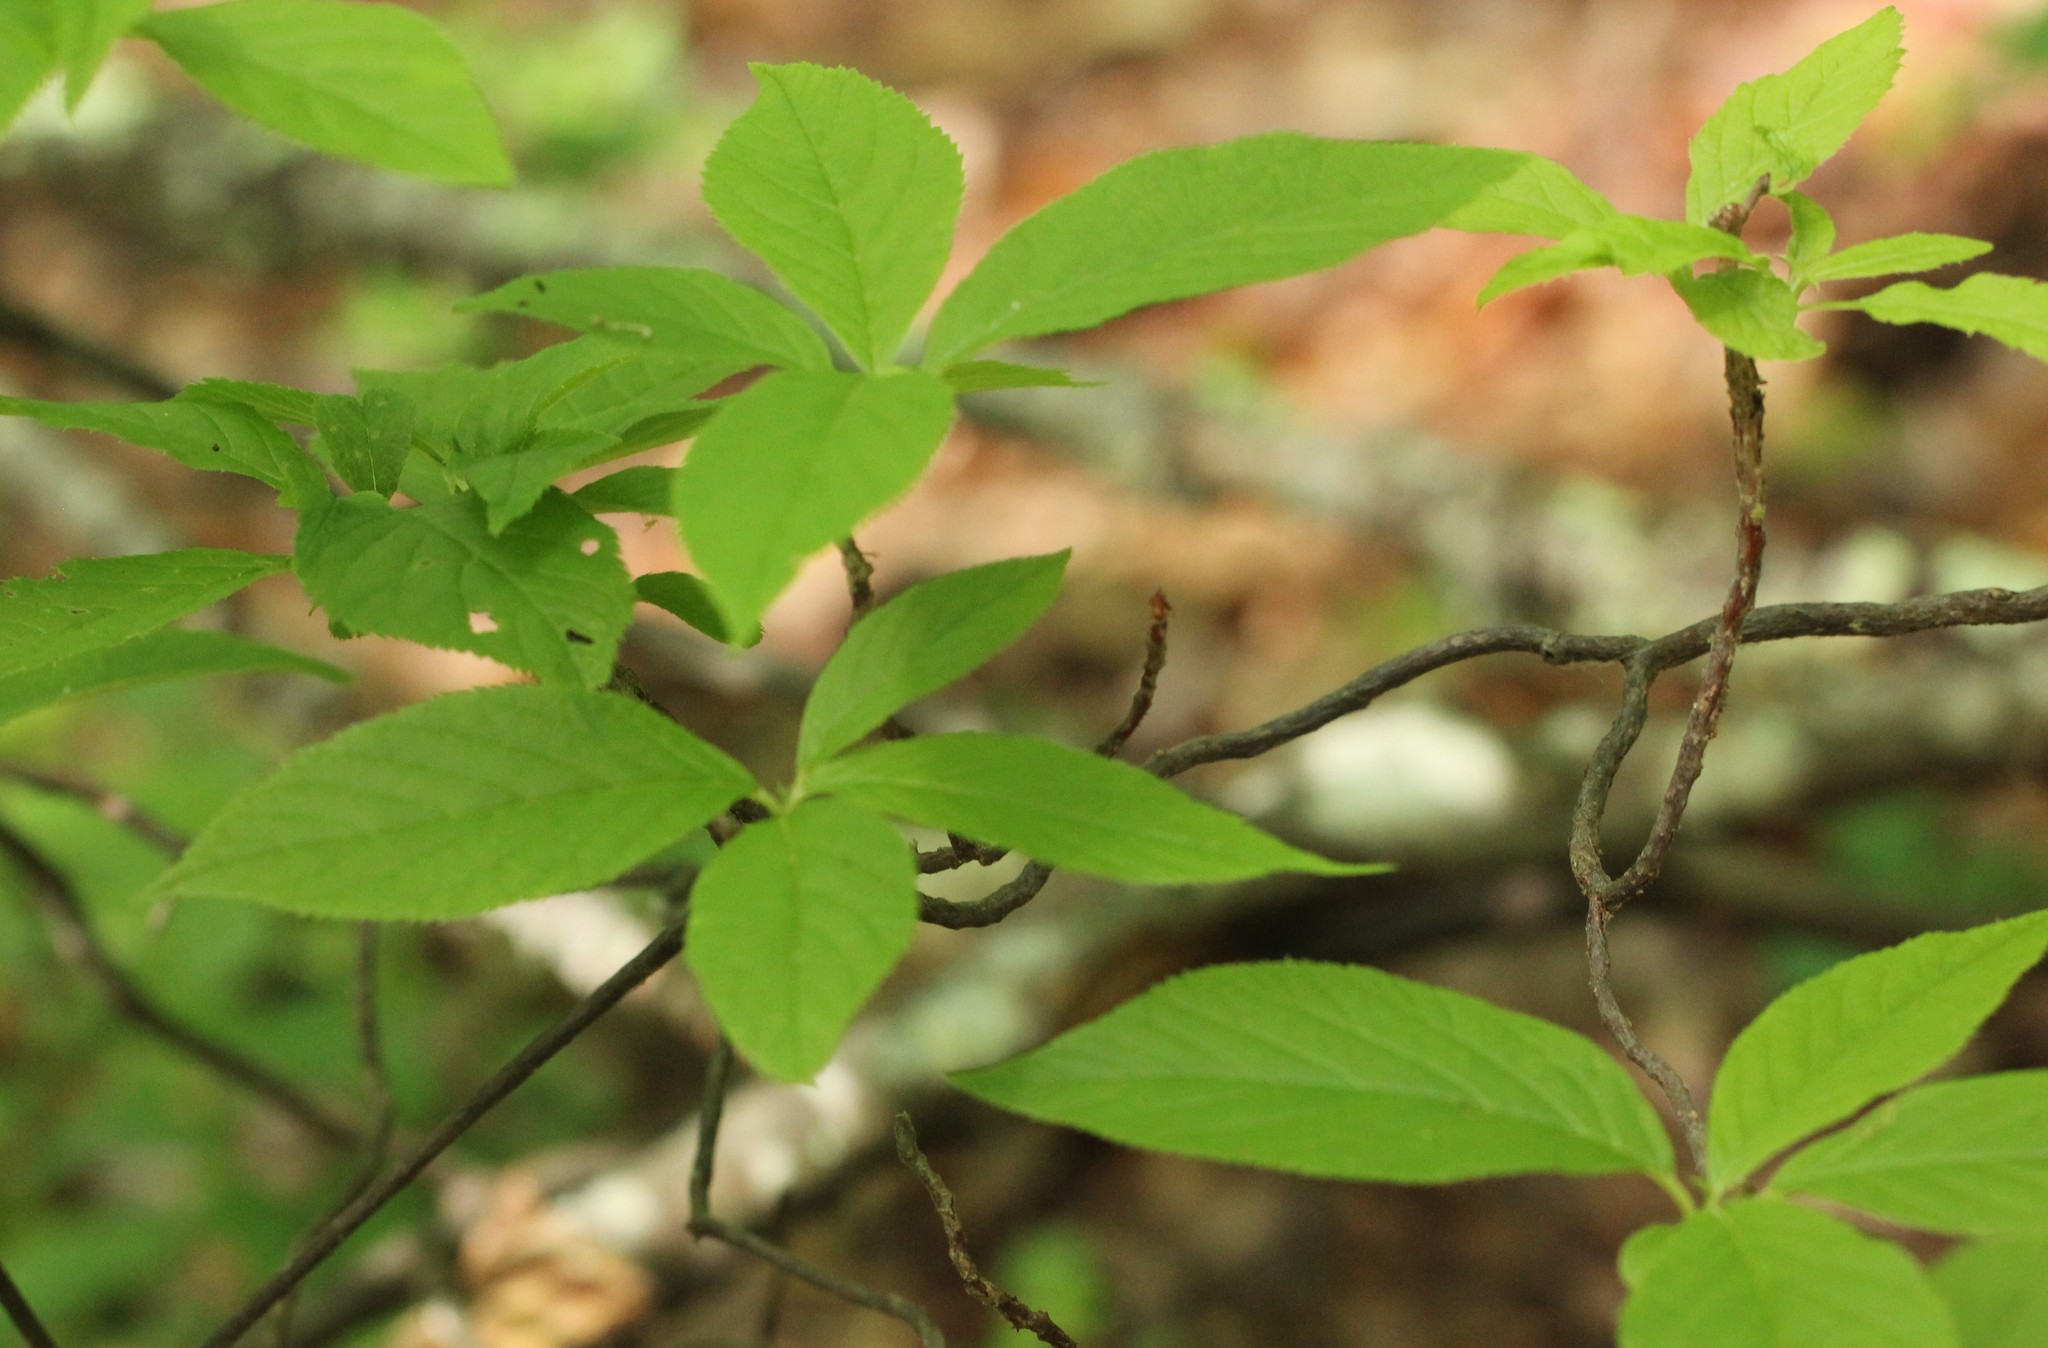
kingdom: Plantae
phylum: Tracheophyta
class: Magnoliopsida
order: Ericales
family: Clethraceae
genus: Clethra
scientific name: Clethra acuminata
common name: Mountain sweet pepperbush
